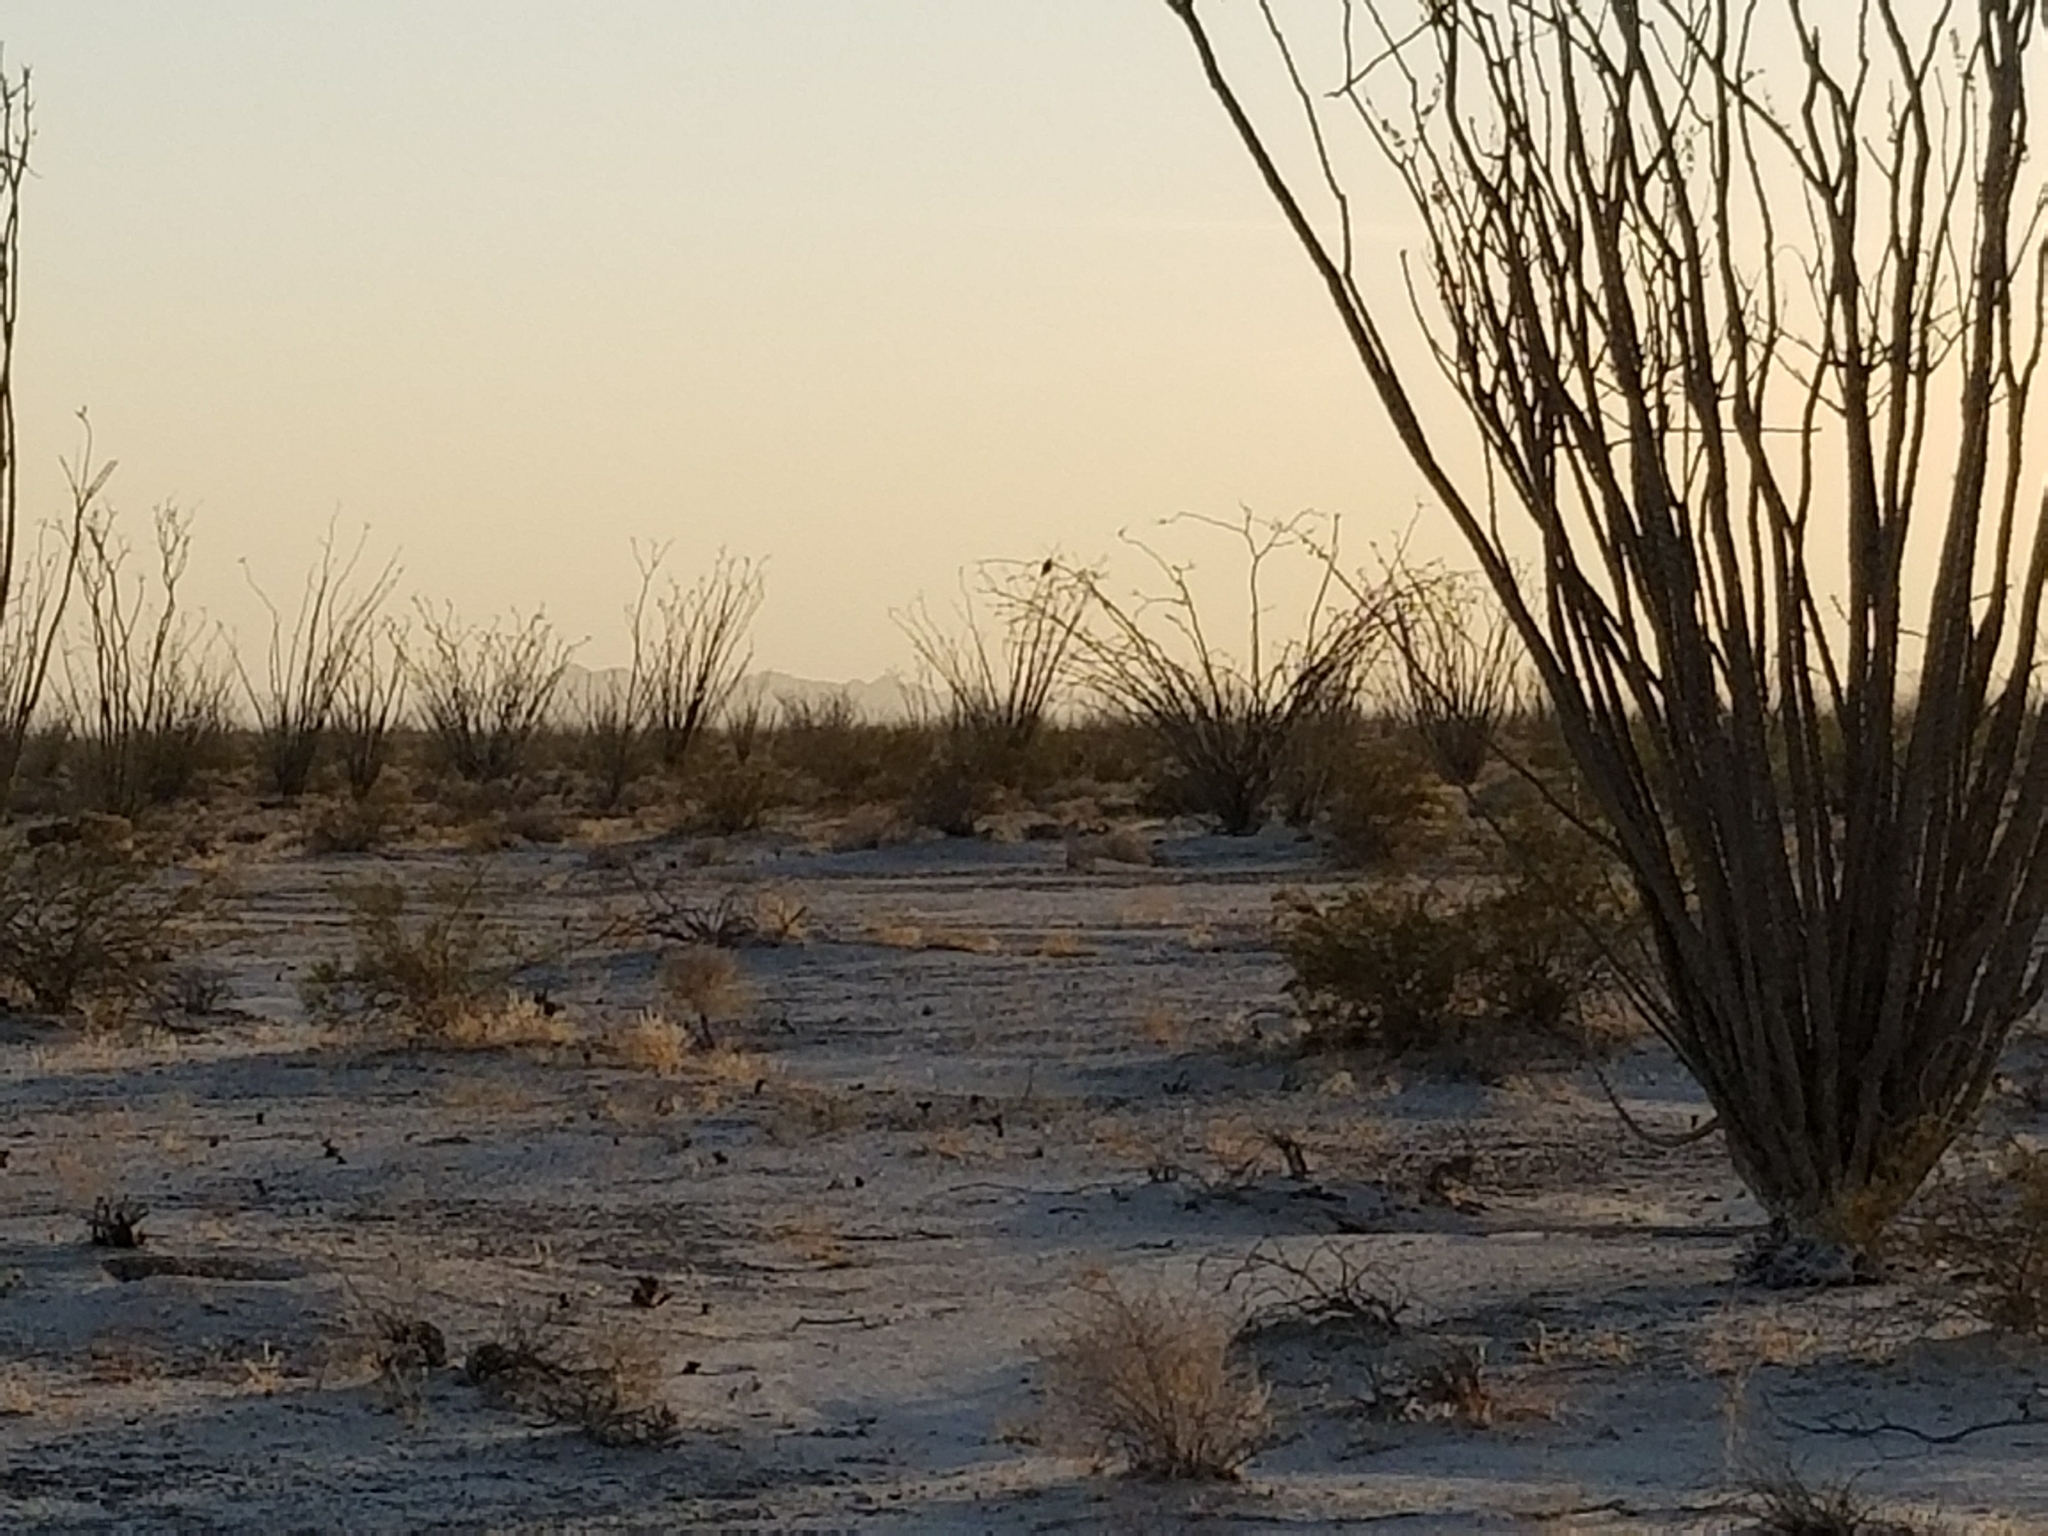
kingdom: Plantae
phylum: Tracheophyta
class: Magnoliopsida
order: Ericales
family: Fouquieriaceae
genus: Fouquieria
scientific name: Fouquieria splendens
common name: Vine-cactus
